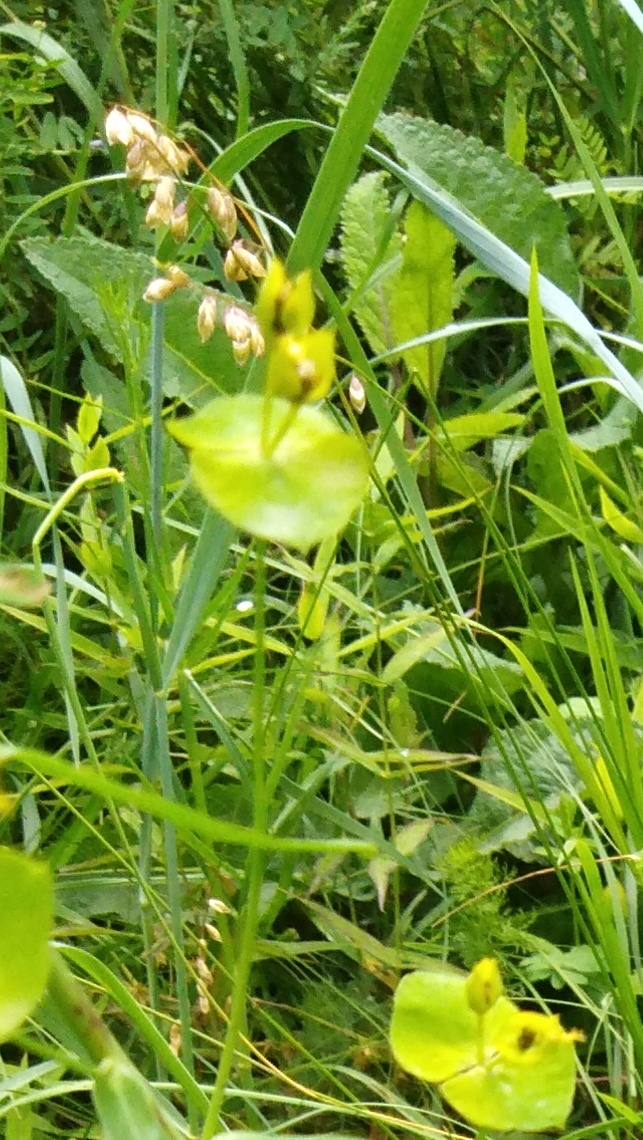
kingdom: Plantae
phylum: Tracheophyta
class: Liliopsida
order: Poales
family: Poaceae
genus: Melica
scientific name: Melica nutans
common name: Mountain melick
